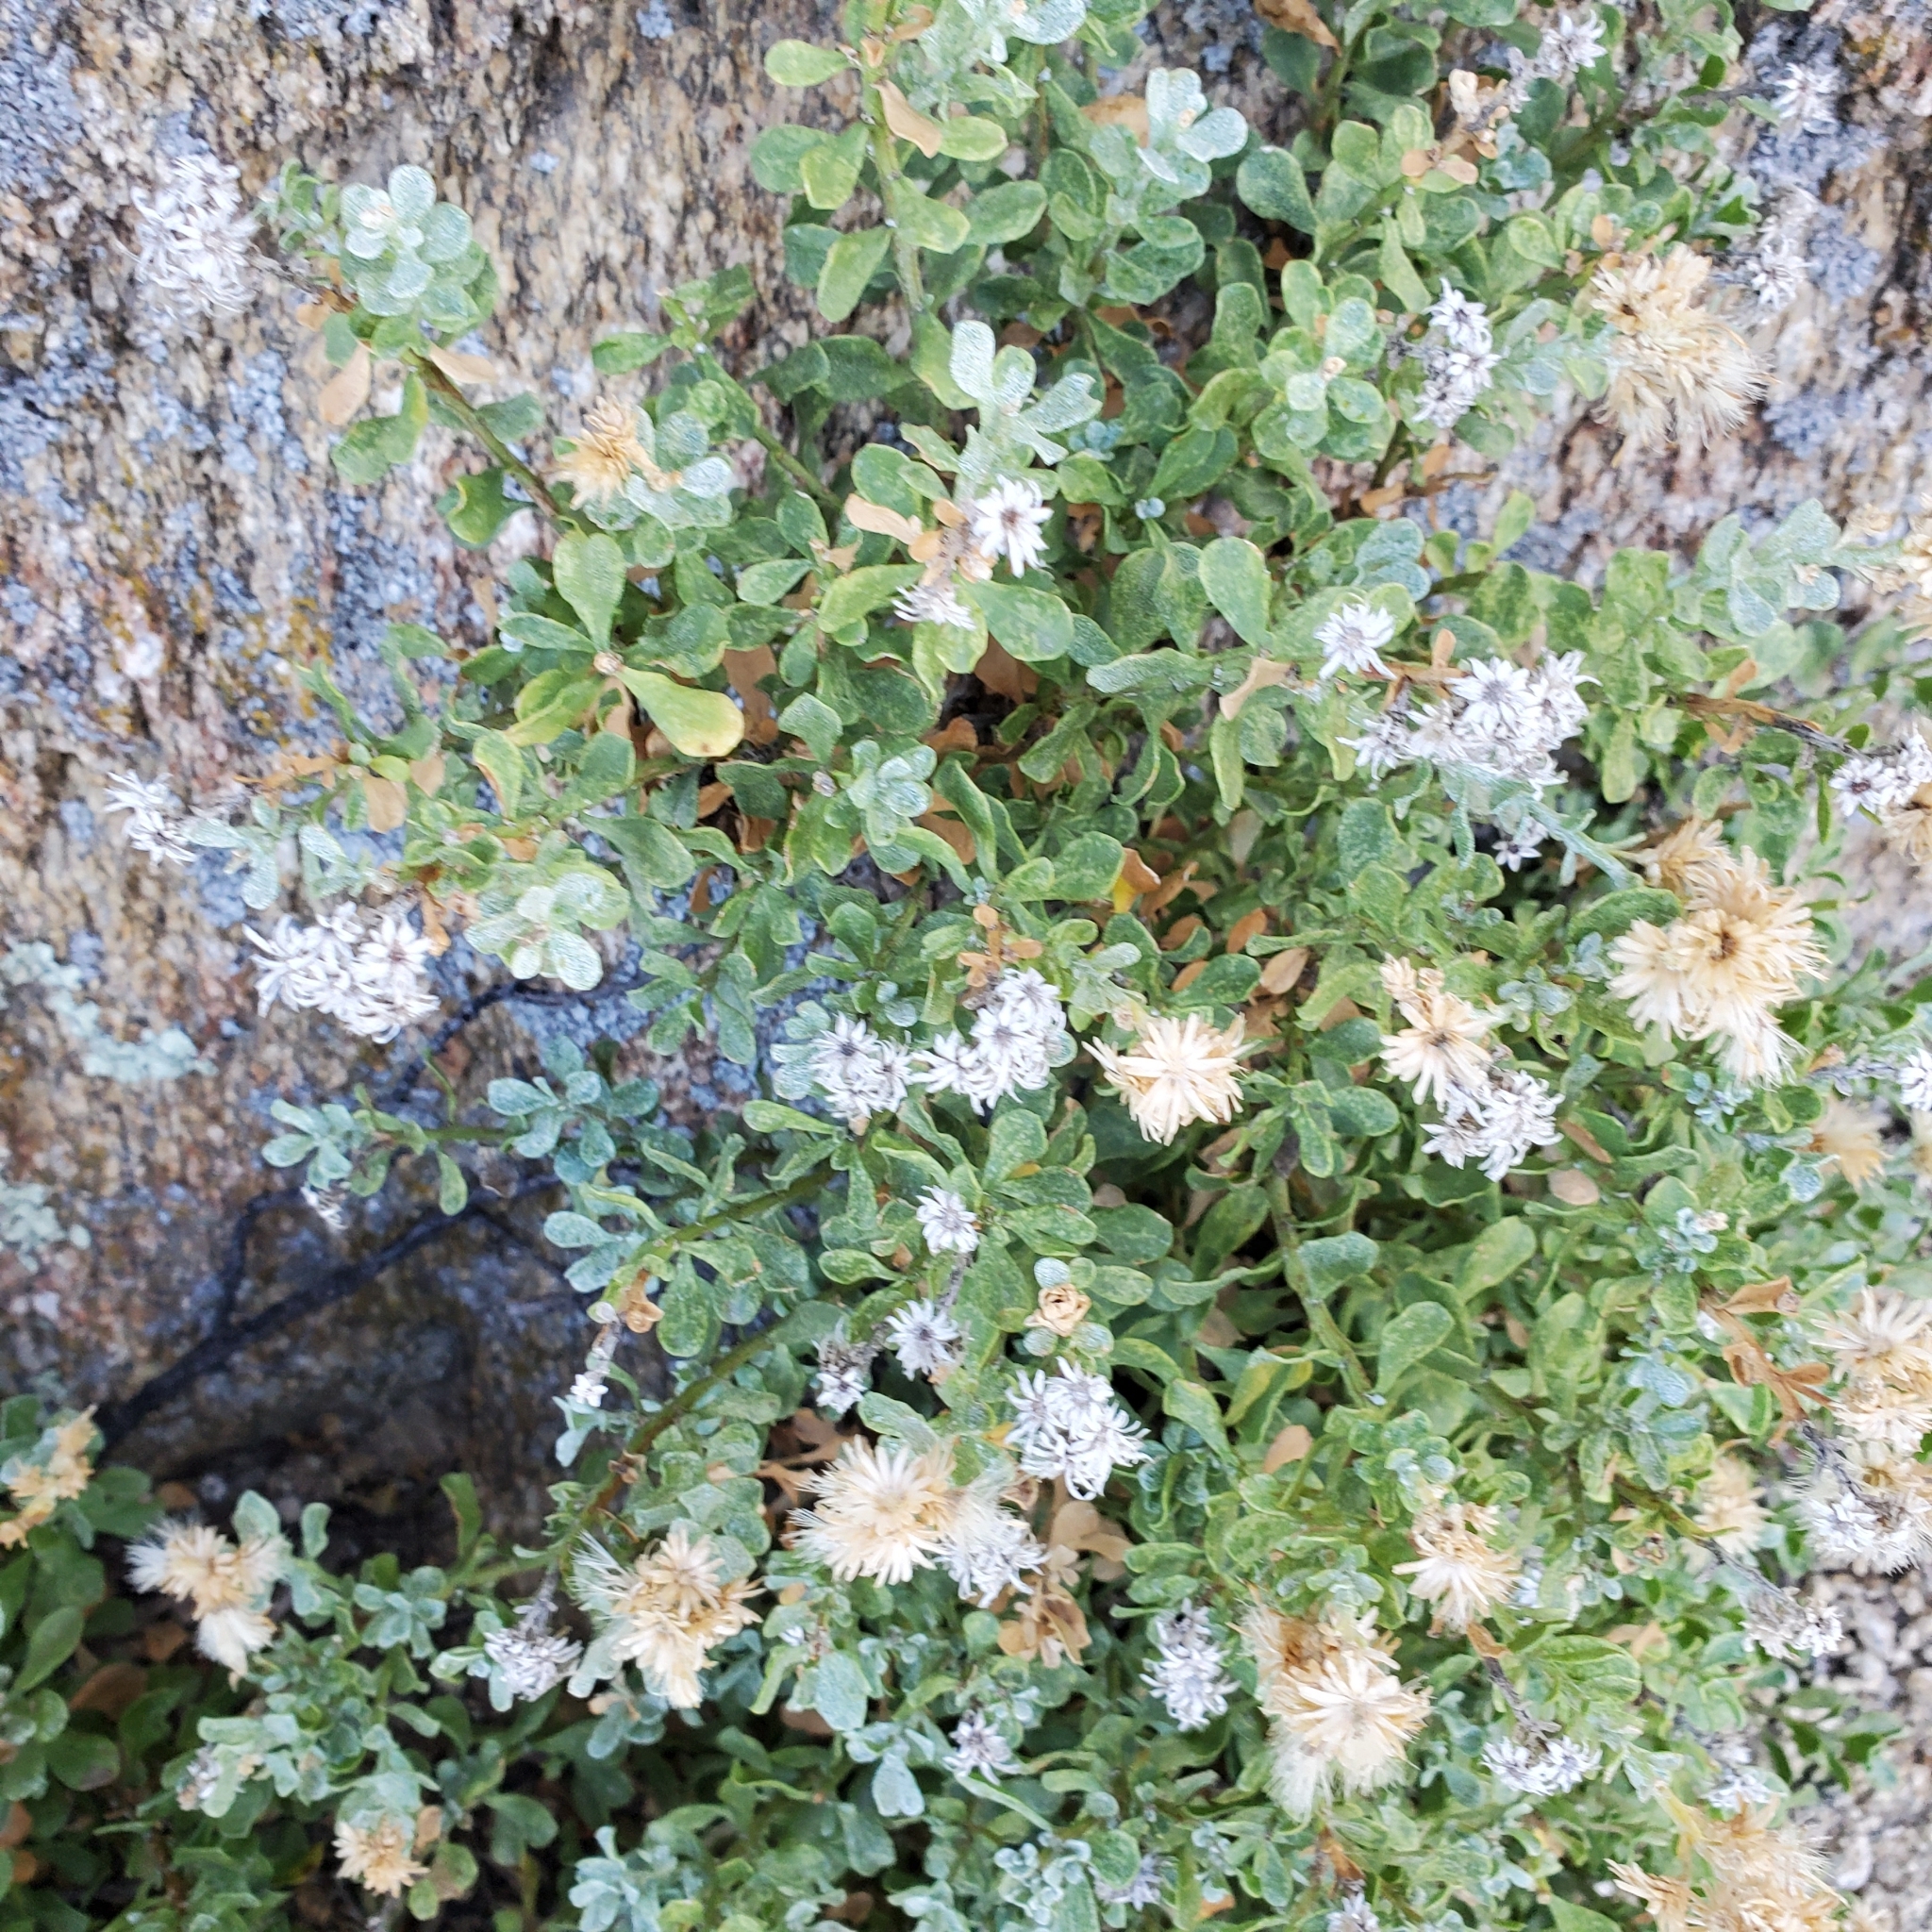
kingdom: Plantae
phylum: Tracheophyta
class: Magnoliopsida
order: Asterales
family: Asteraceae
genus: Ericameria
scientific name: Ericameria cuneata
